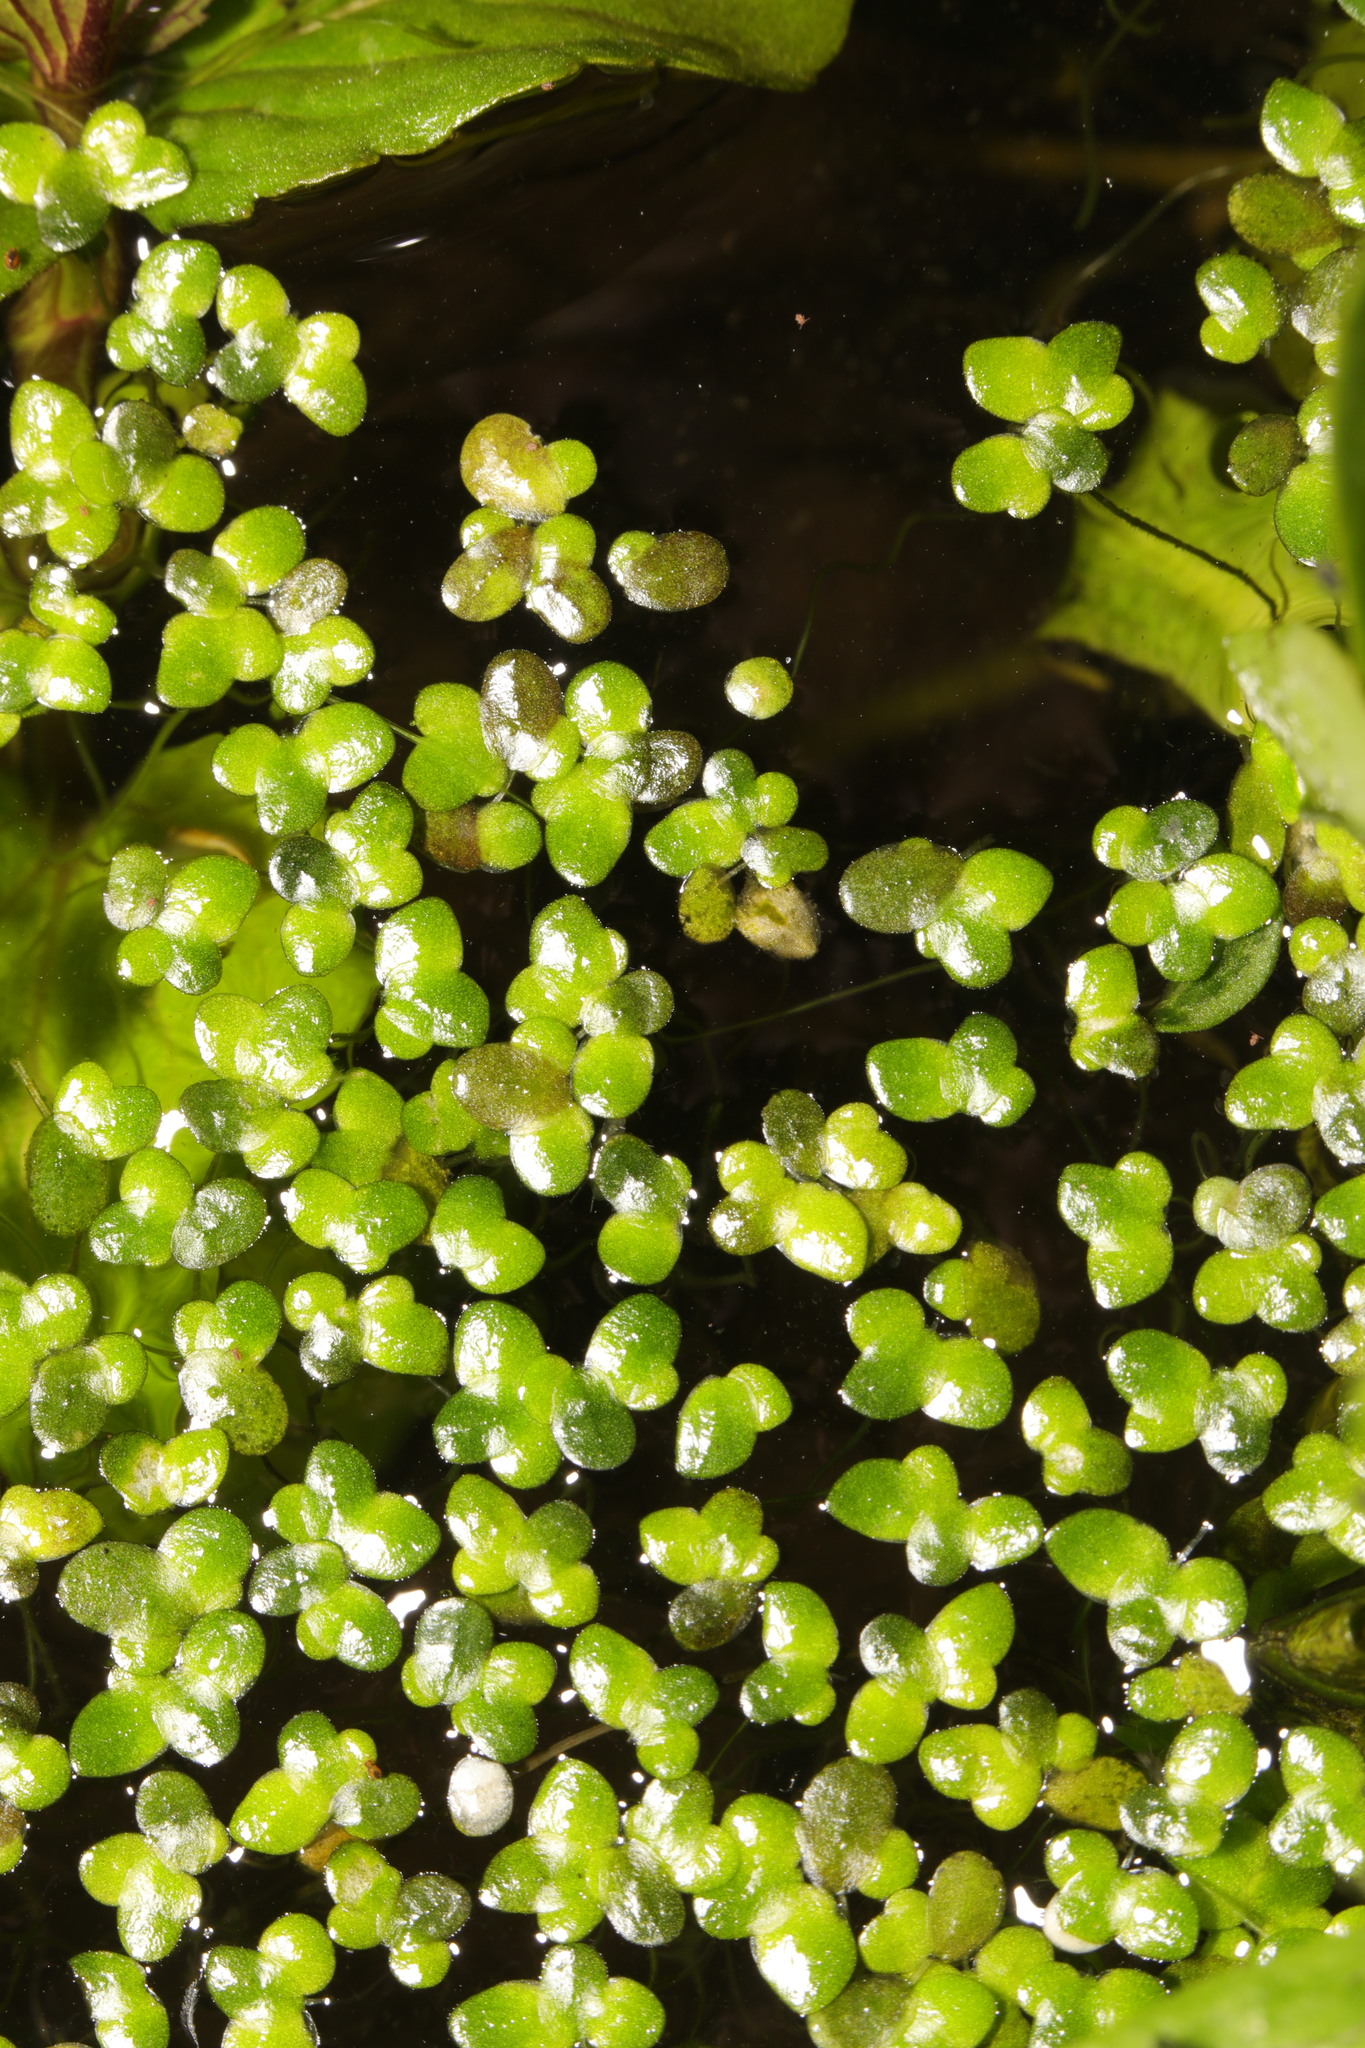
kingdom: Plantae
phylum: Tracheophyta
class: Liliopsida
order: Alismatales
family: Araceae
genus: Lemna
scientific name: Lemna minor
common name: Common duckweed
